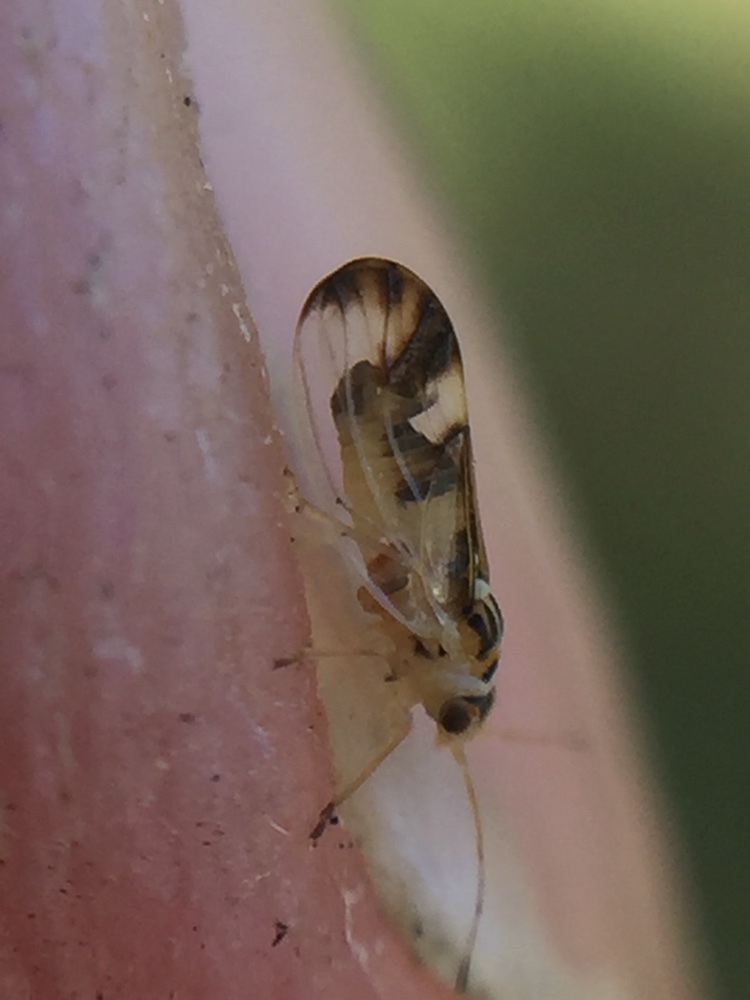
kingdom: Animalia
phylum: Arthropoda
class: Insecta
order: Hemiptera
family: Liviidae
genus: Psyllopsis
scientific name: Psyllopsis fraxini
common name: Jumping plant louse
